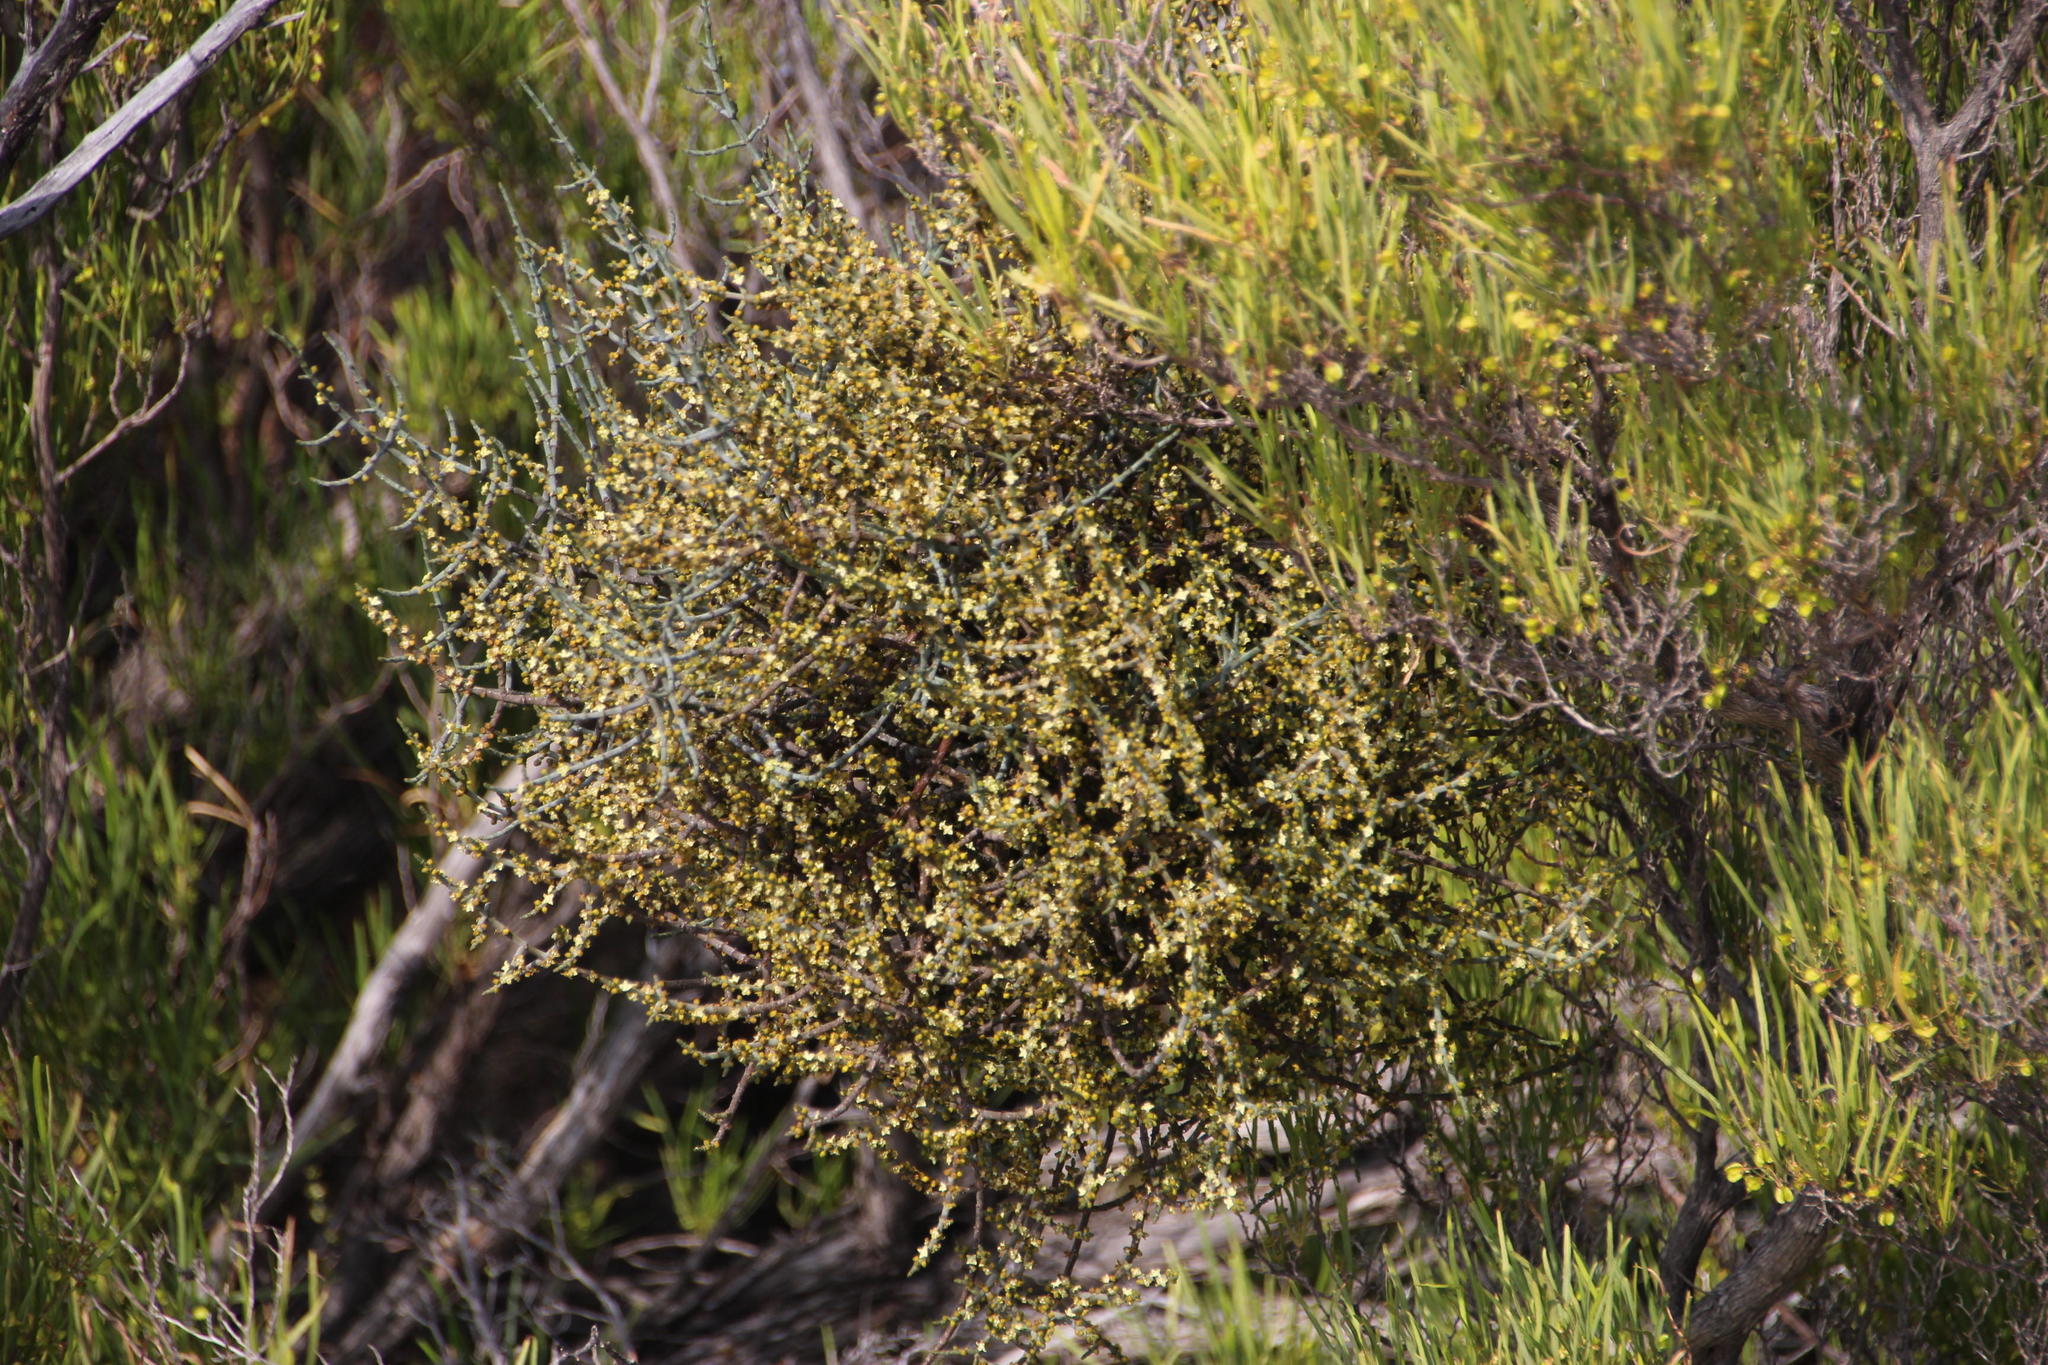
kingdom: Plantae
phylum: Tracheophyta
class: Magnoliopsida
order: Santalales
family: Viscaceae
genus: Viscum
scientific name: Viscum capense
